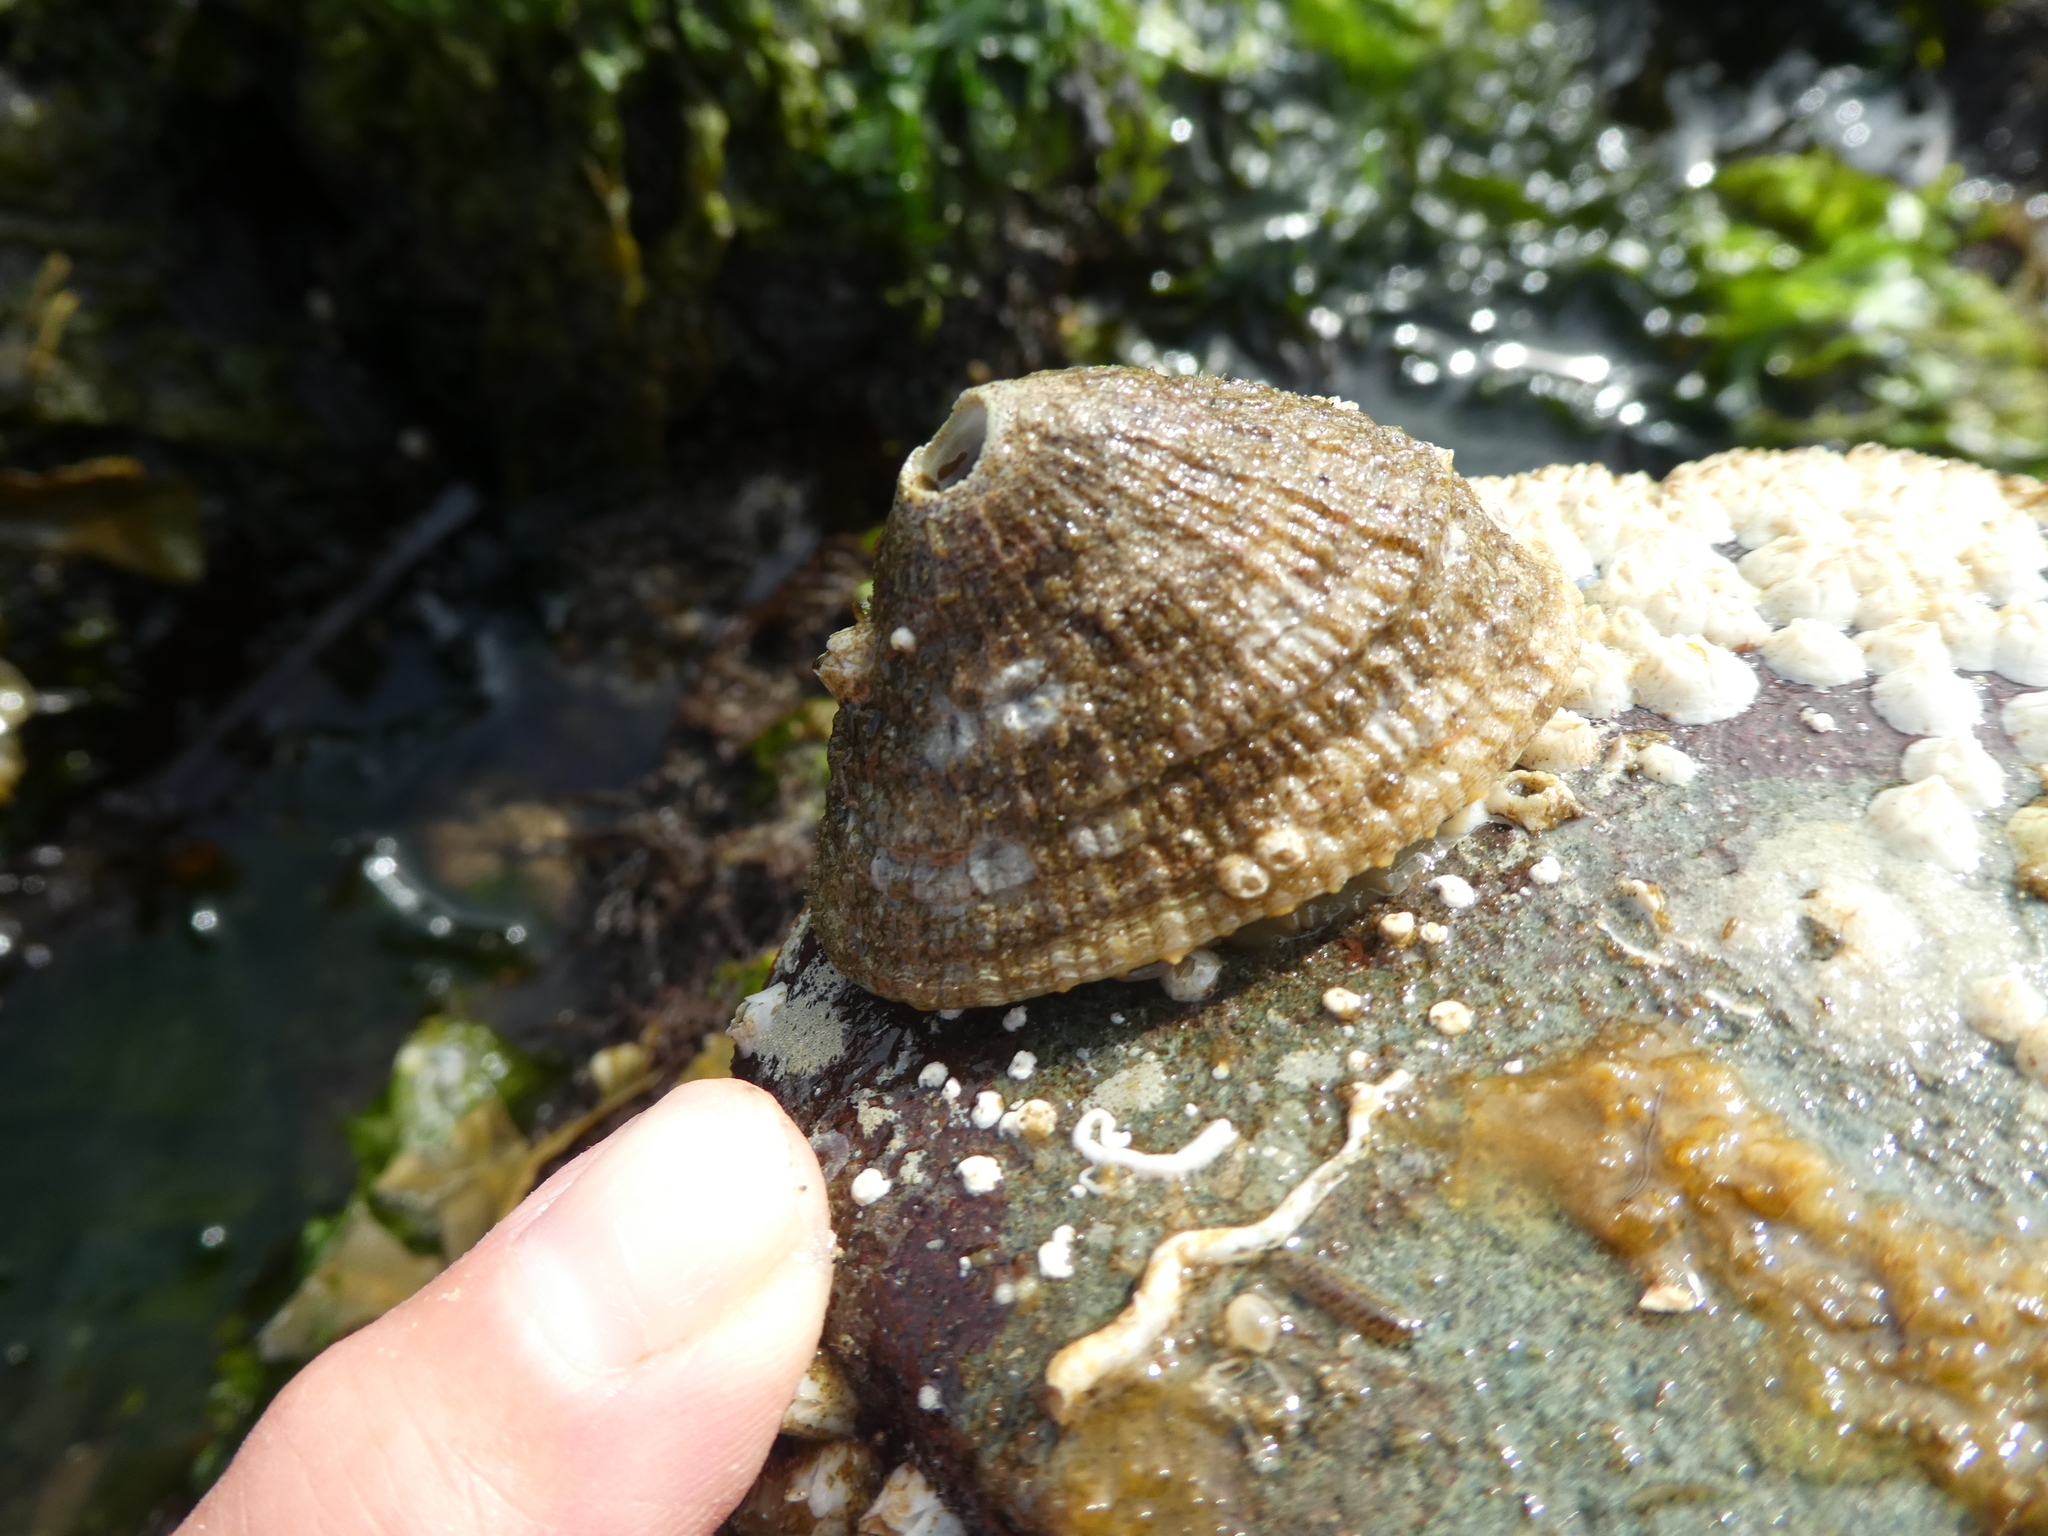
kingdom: Animalia
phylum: Mollusca
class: Gastropoda
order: Lepetellida
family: Fissurellidae
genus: Diodora
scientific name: Diodora aspera
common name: Rough keyhole limpet
